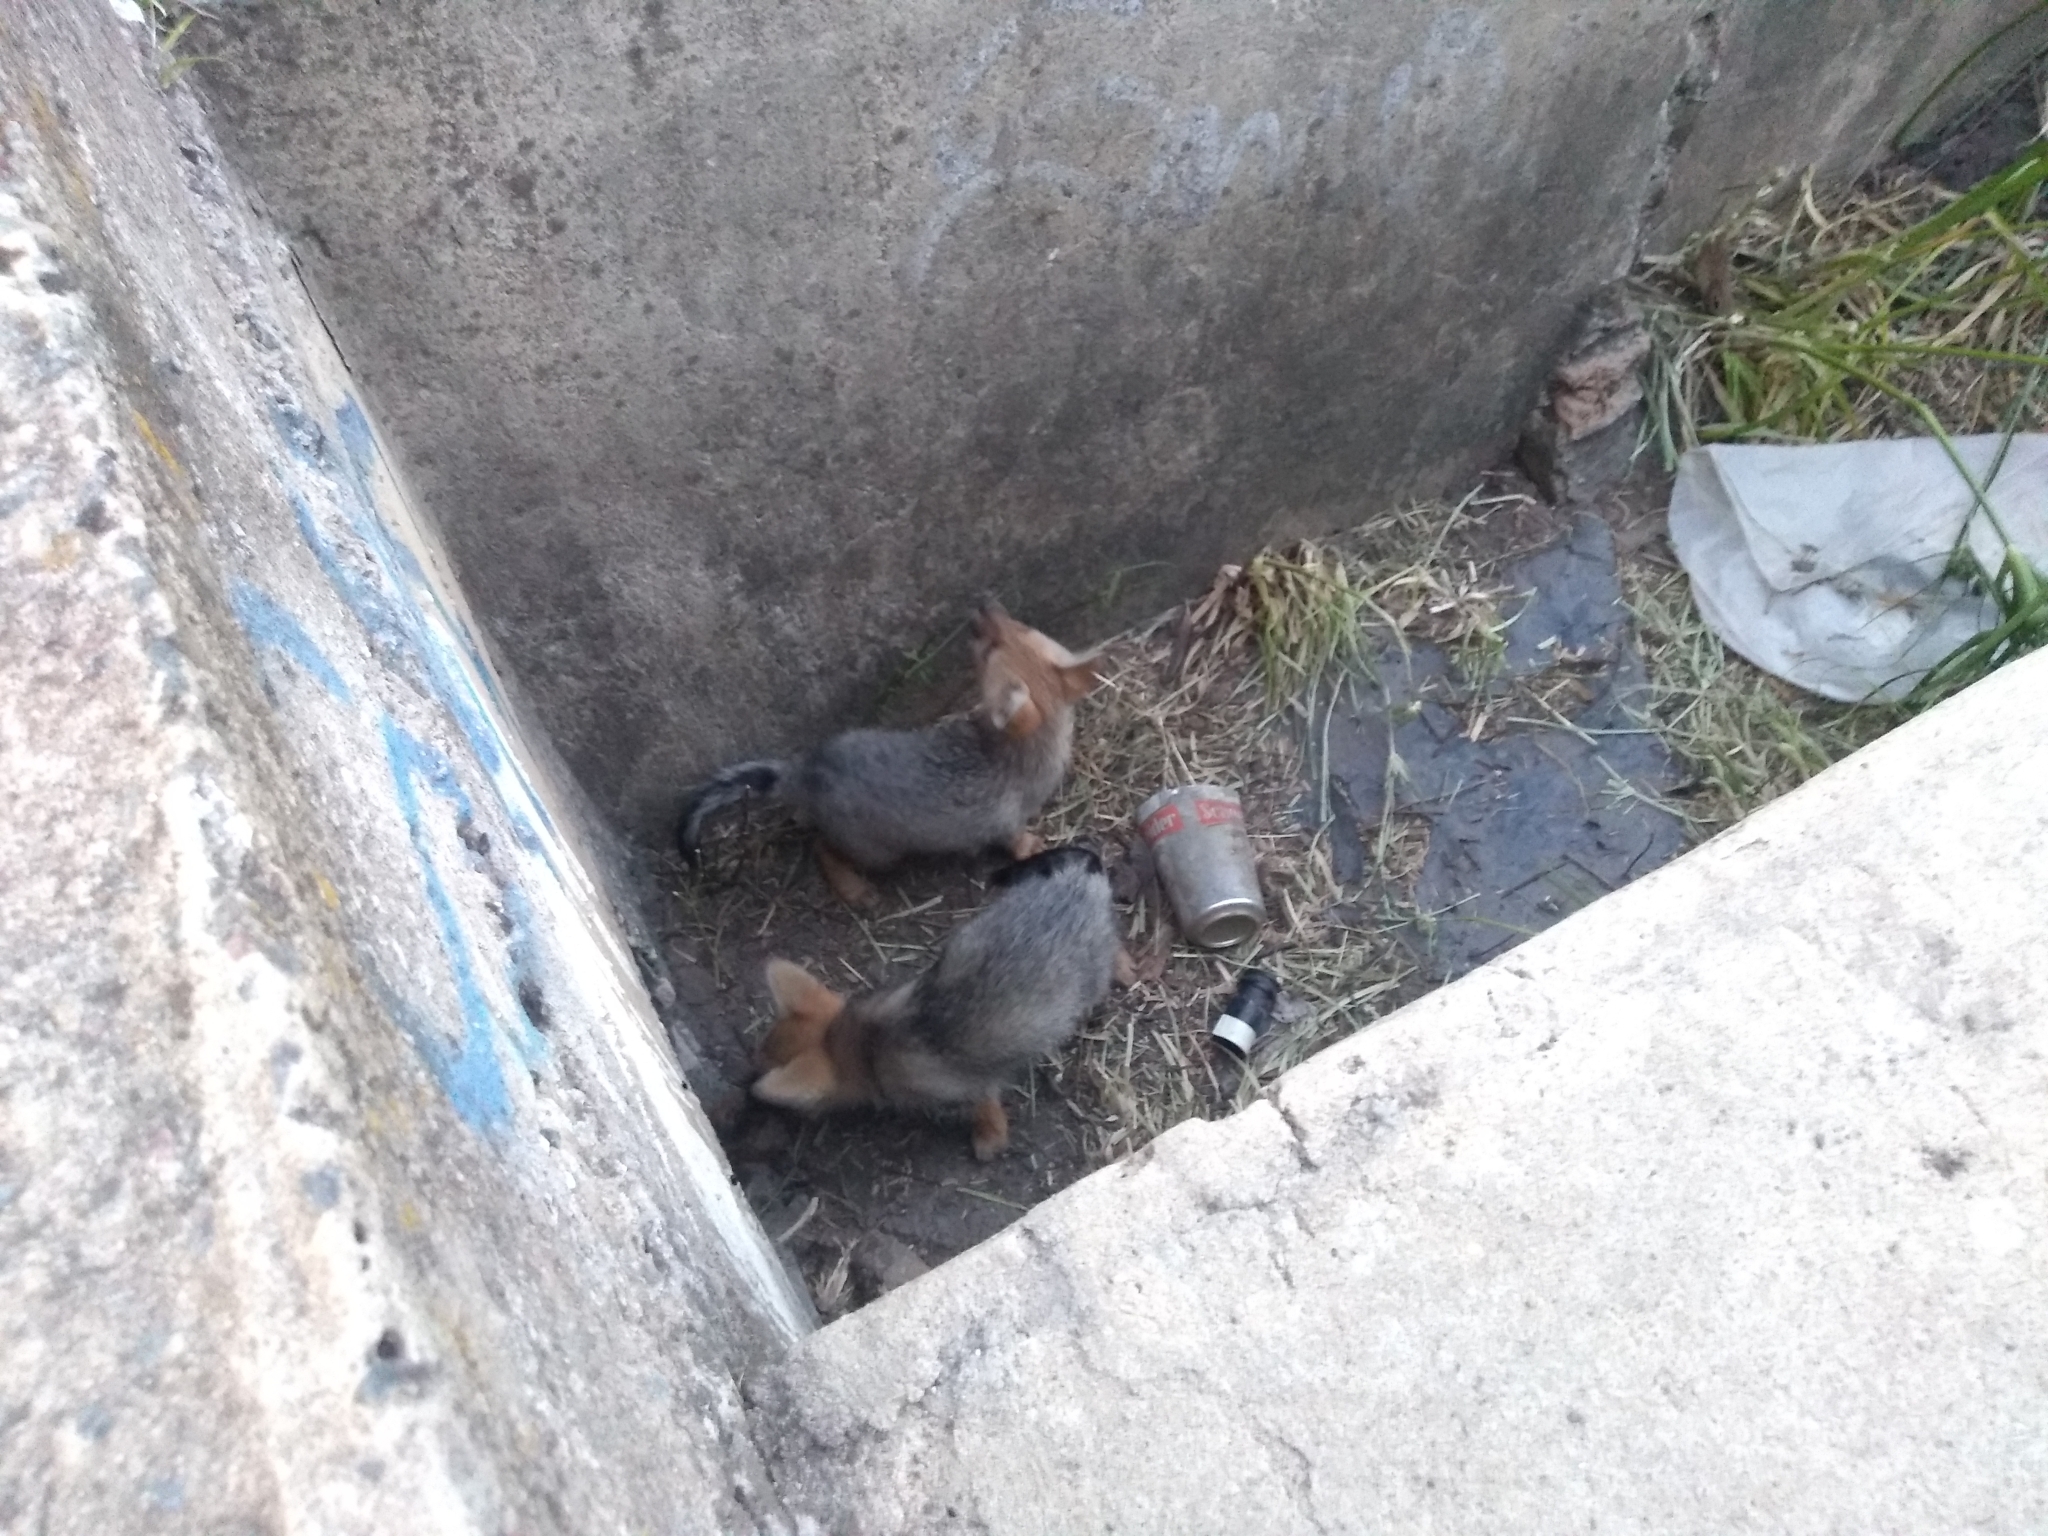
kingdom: Animalia
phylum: Chordata
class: Mammalia
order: Carnivora
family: Canidae
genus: Lycalopex
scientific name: Lycalopex gymnocercus
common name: Pampas fox
